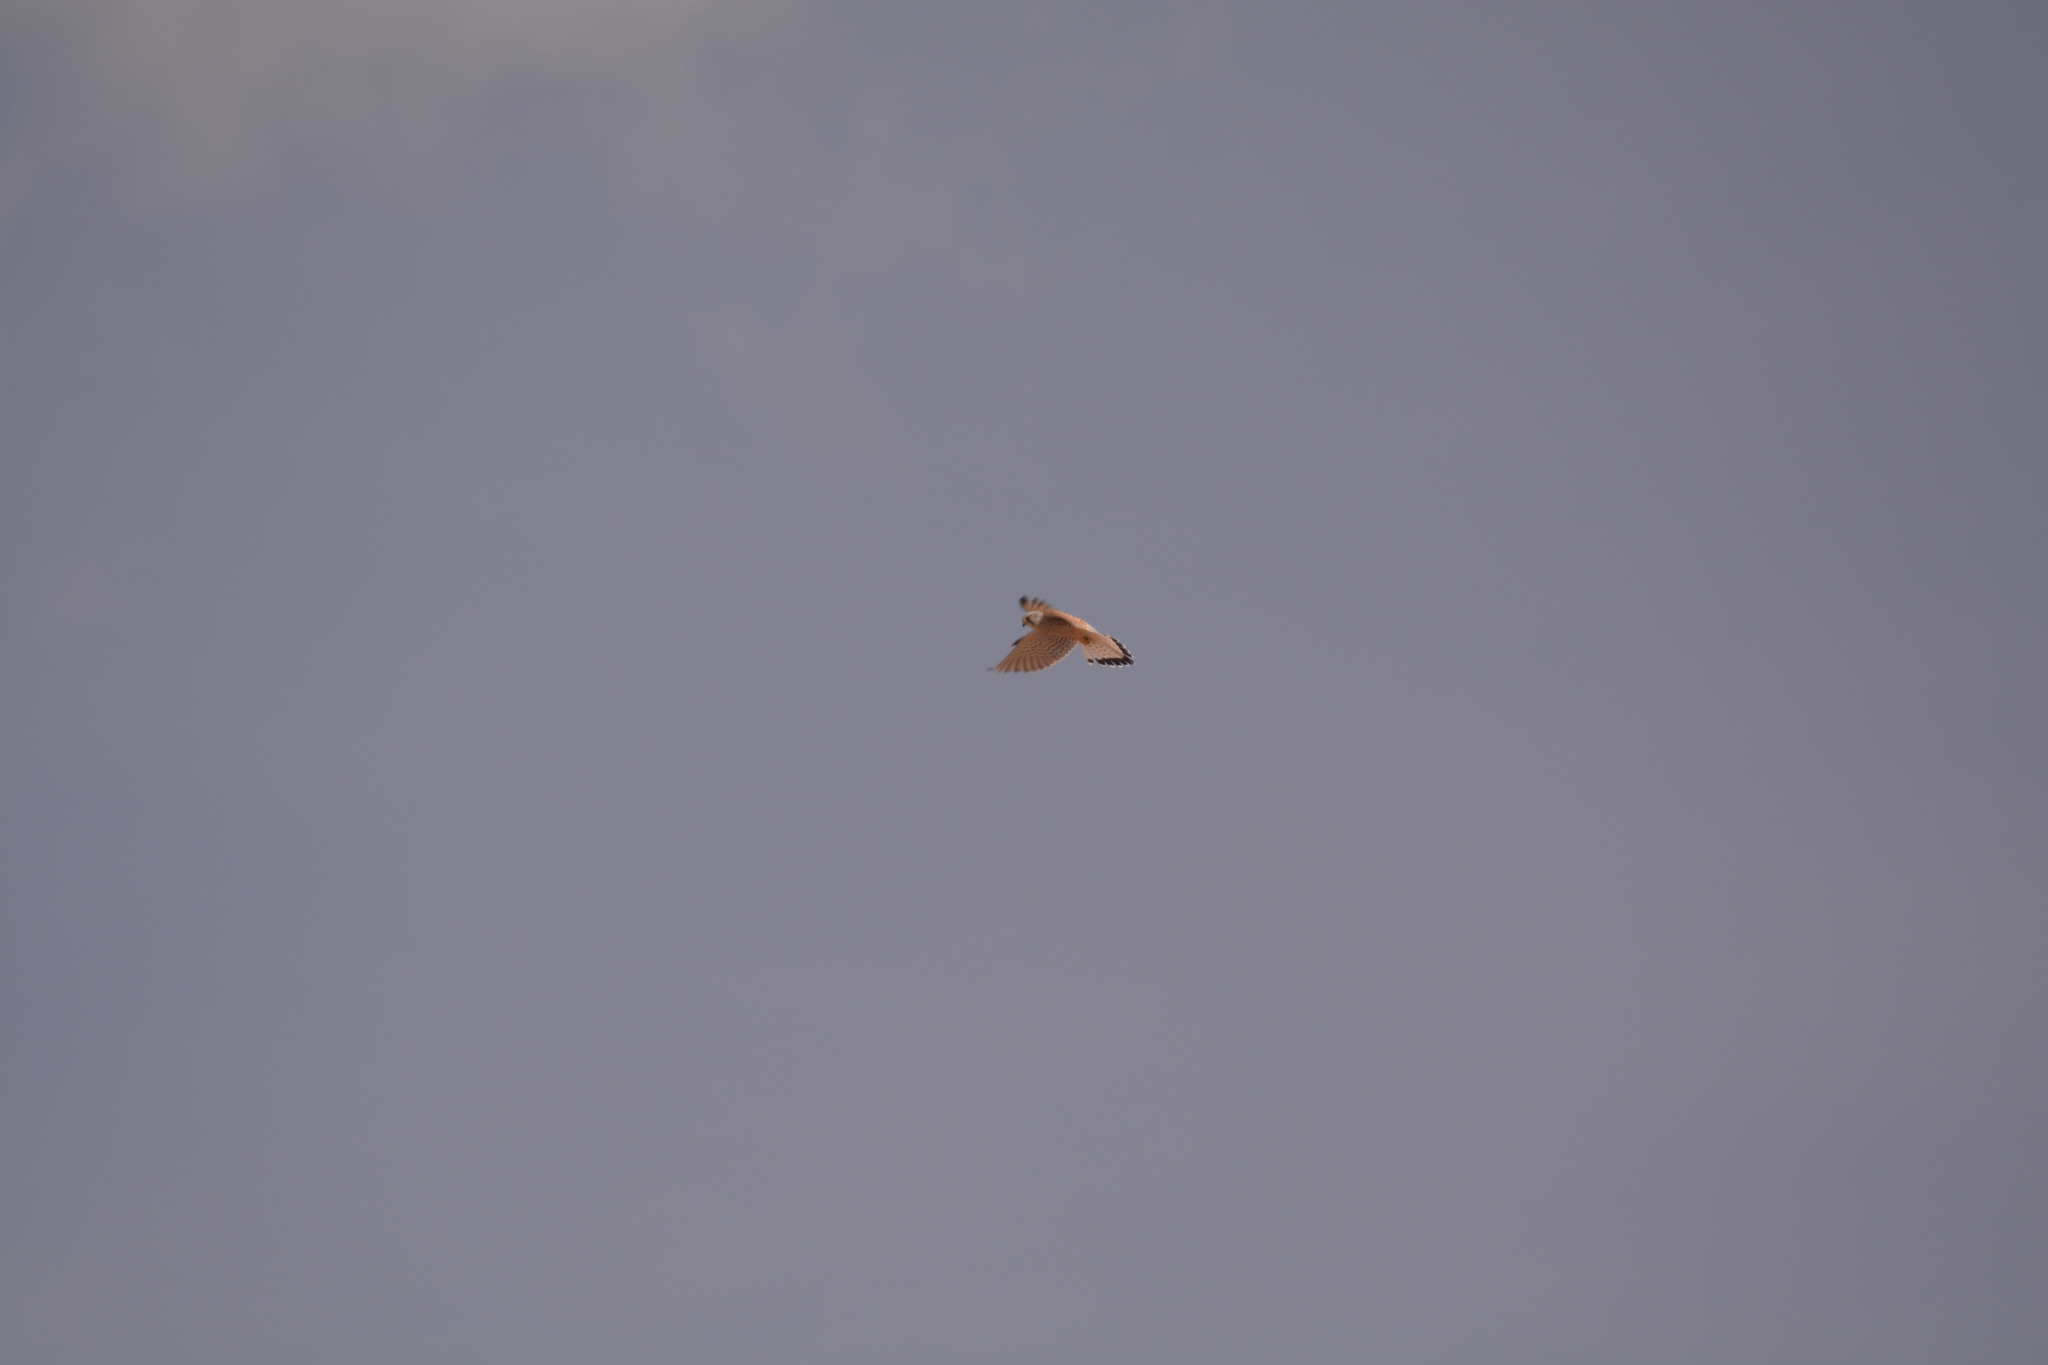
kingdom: Animalia
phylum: Chordata
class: Aves
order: Falconiformes
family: Falconidae
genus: Falco
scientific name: Falco tinnunculus
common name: Common kestrel
